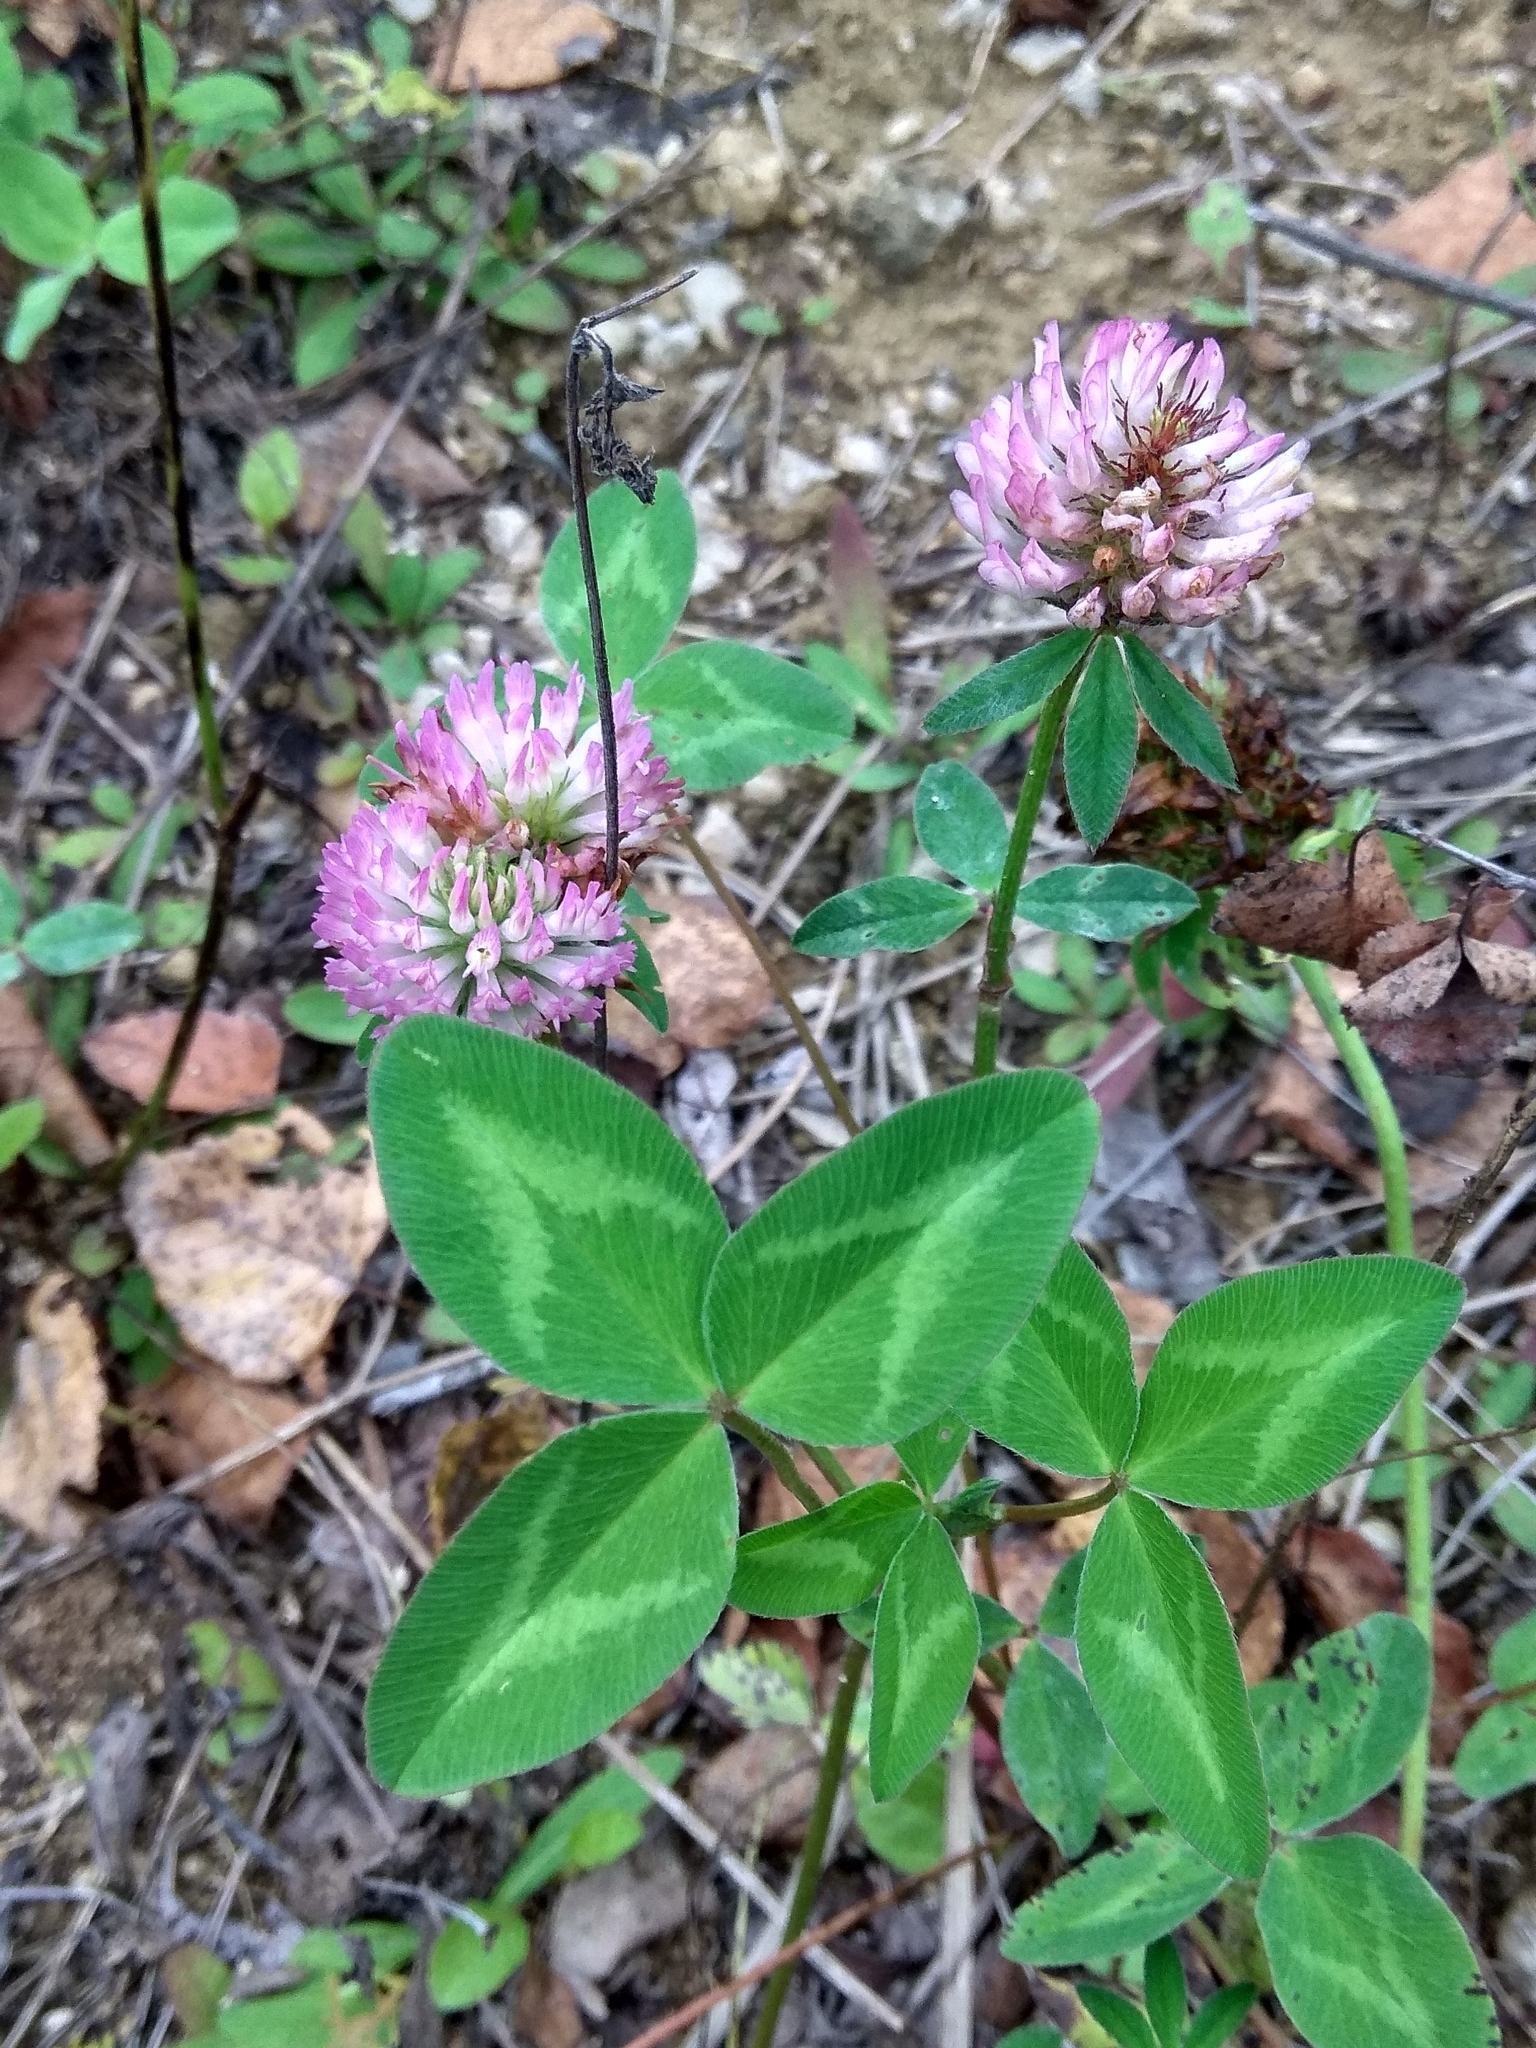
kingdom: Plantae
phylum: Tracheophyta
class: Magnoliopsida
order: Fabales
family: Fabaceae
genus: Trifolium
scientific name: Trifolium pratense
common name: Red clover
